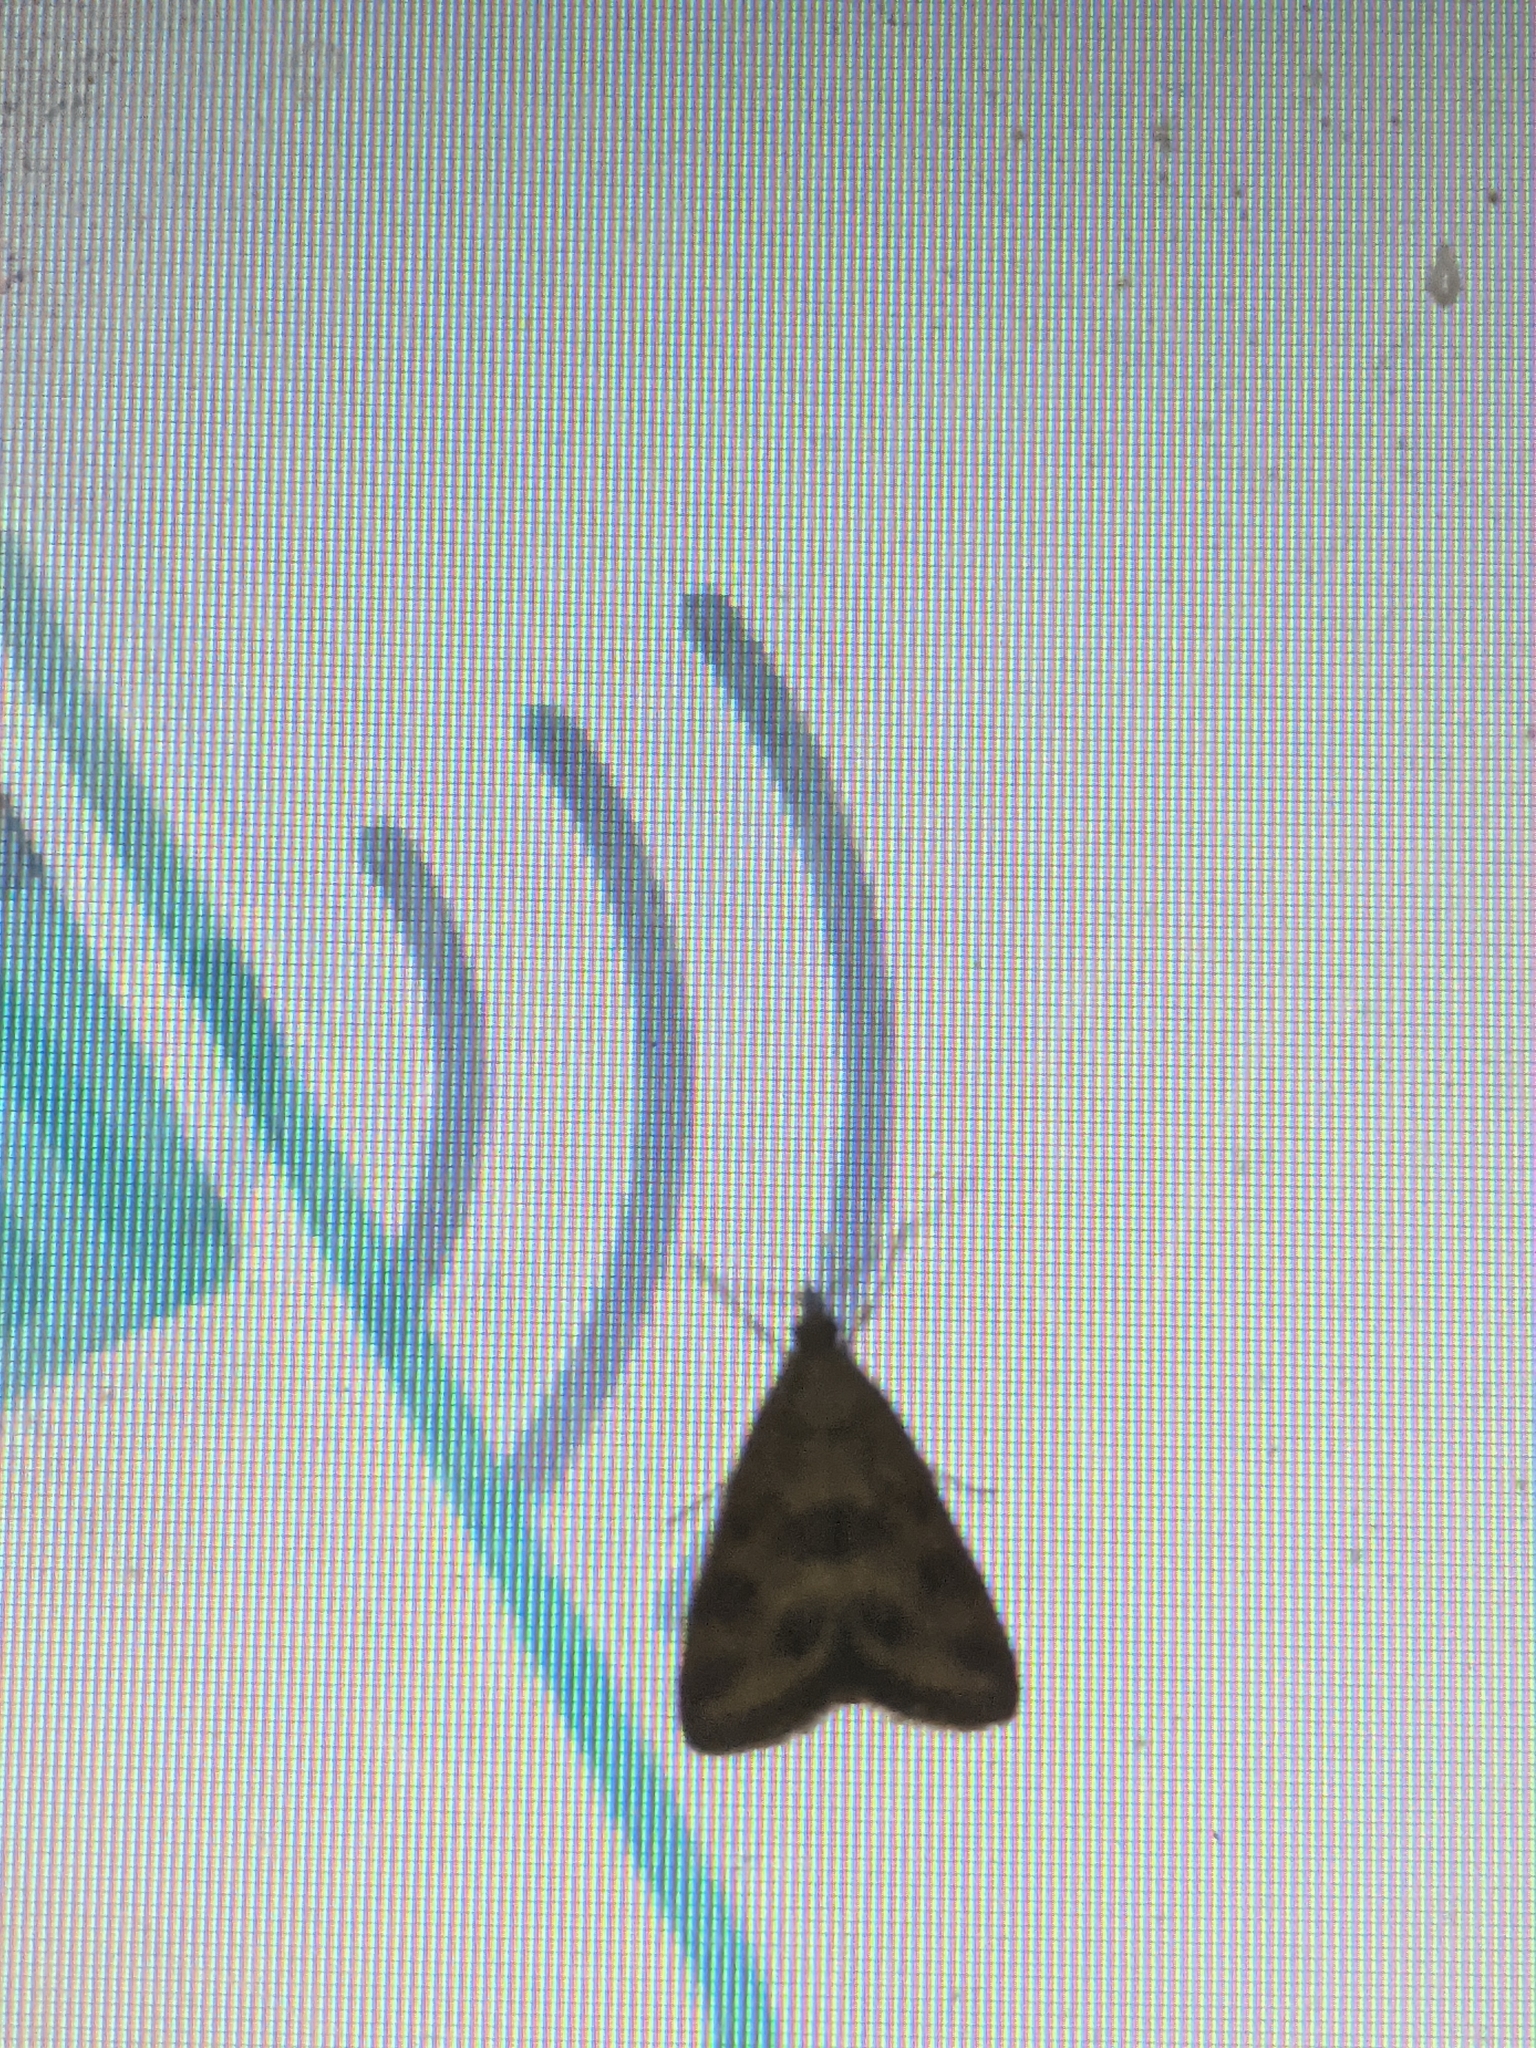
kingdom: Animalia
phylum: Arthropoda
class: Insecta
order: Lepidoptera
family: Crambidae
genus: Pyrausta
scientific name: Pyrausta despicata
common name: Straw-barred pearl
